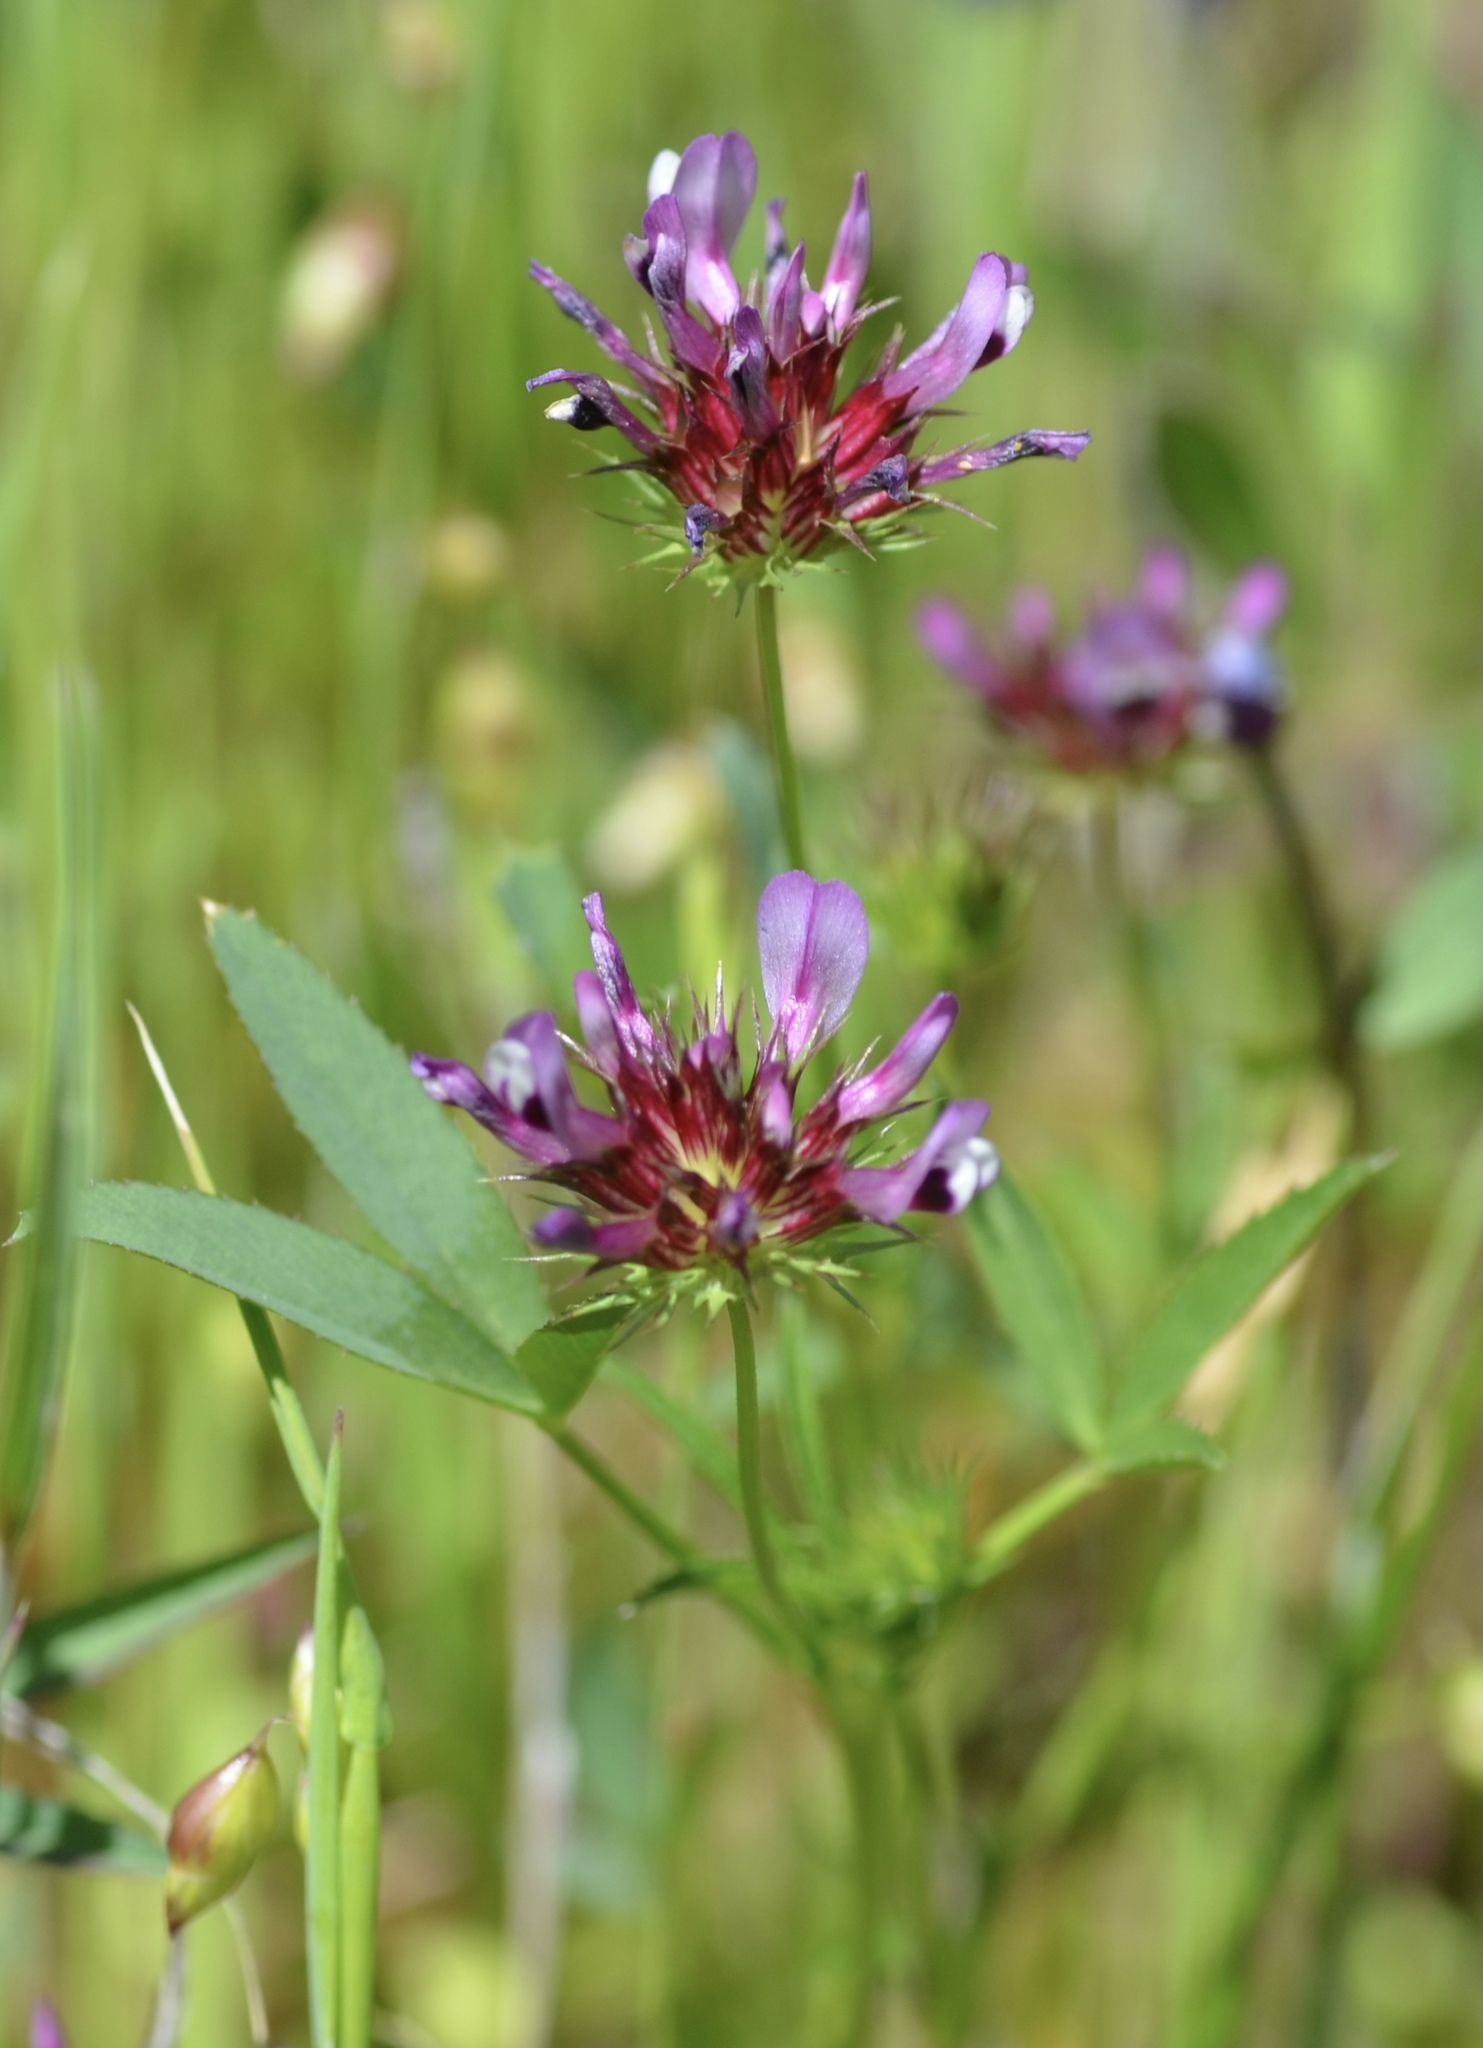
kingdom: Plantae
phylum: Tracheophyta
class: Magnoliopsida
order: Fabales
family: Fabaceae
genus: Trifolium
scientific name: Trifolium willdenovii
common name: Tomcat clover
